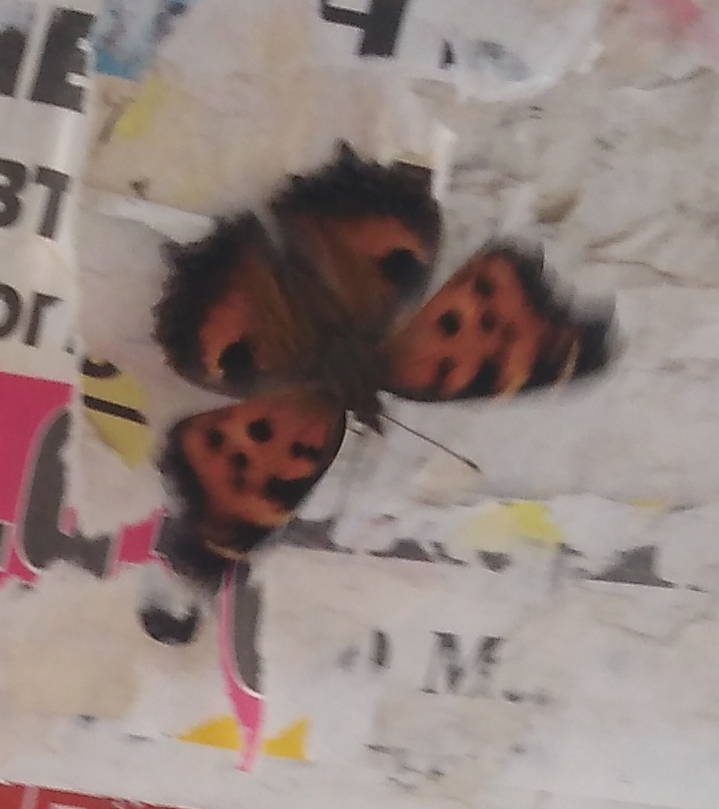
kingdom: Animalia
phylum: Arthropoda
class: Insecta
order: Lepidoptera
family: Nymphalidae
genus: Nymphalis
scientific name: Nymphalis xanthomelas
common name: Scarce tortoiseshell
